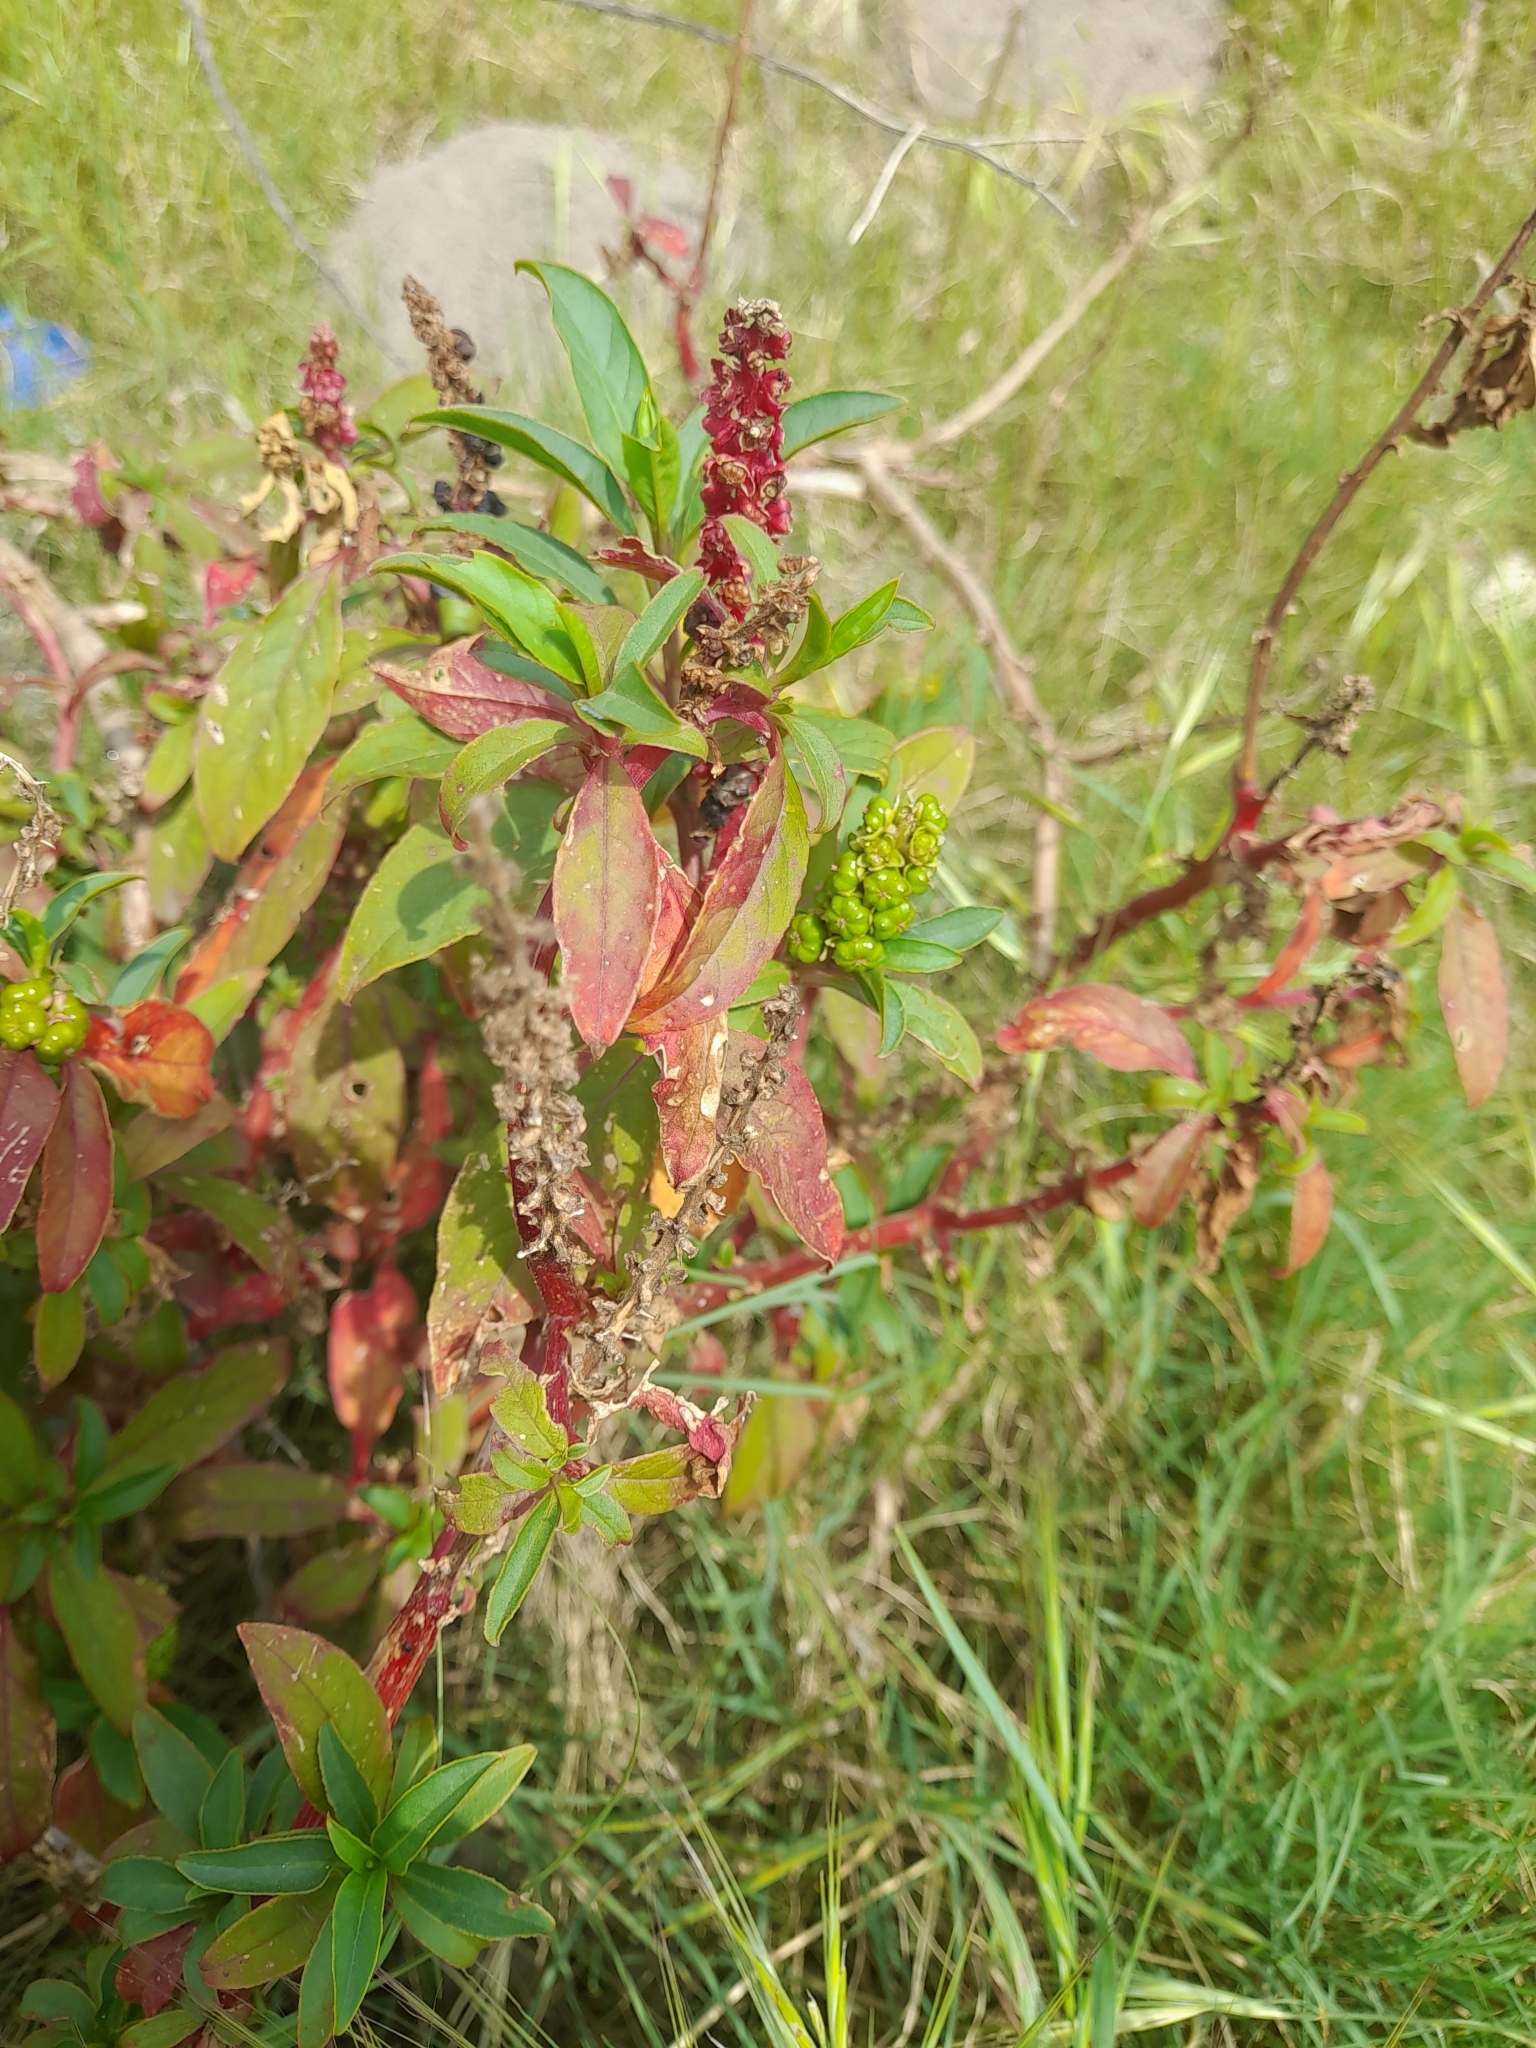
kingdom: Plantae
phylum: Tracheophyta
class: Magnoliopsida
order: Caryophyllales
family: Phytolaccaceae
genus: Phytolacca
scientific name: Phytolacca icosandra
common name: Button pokeweed
